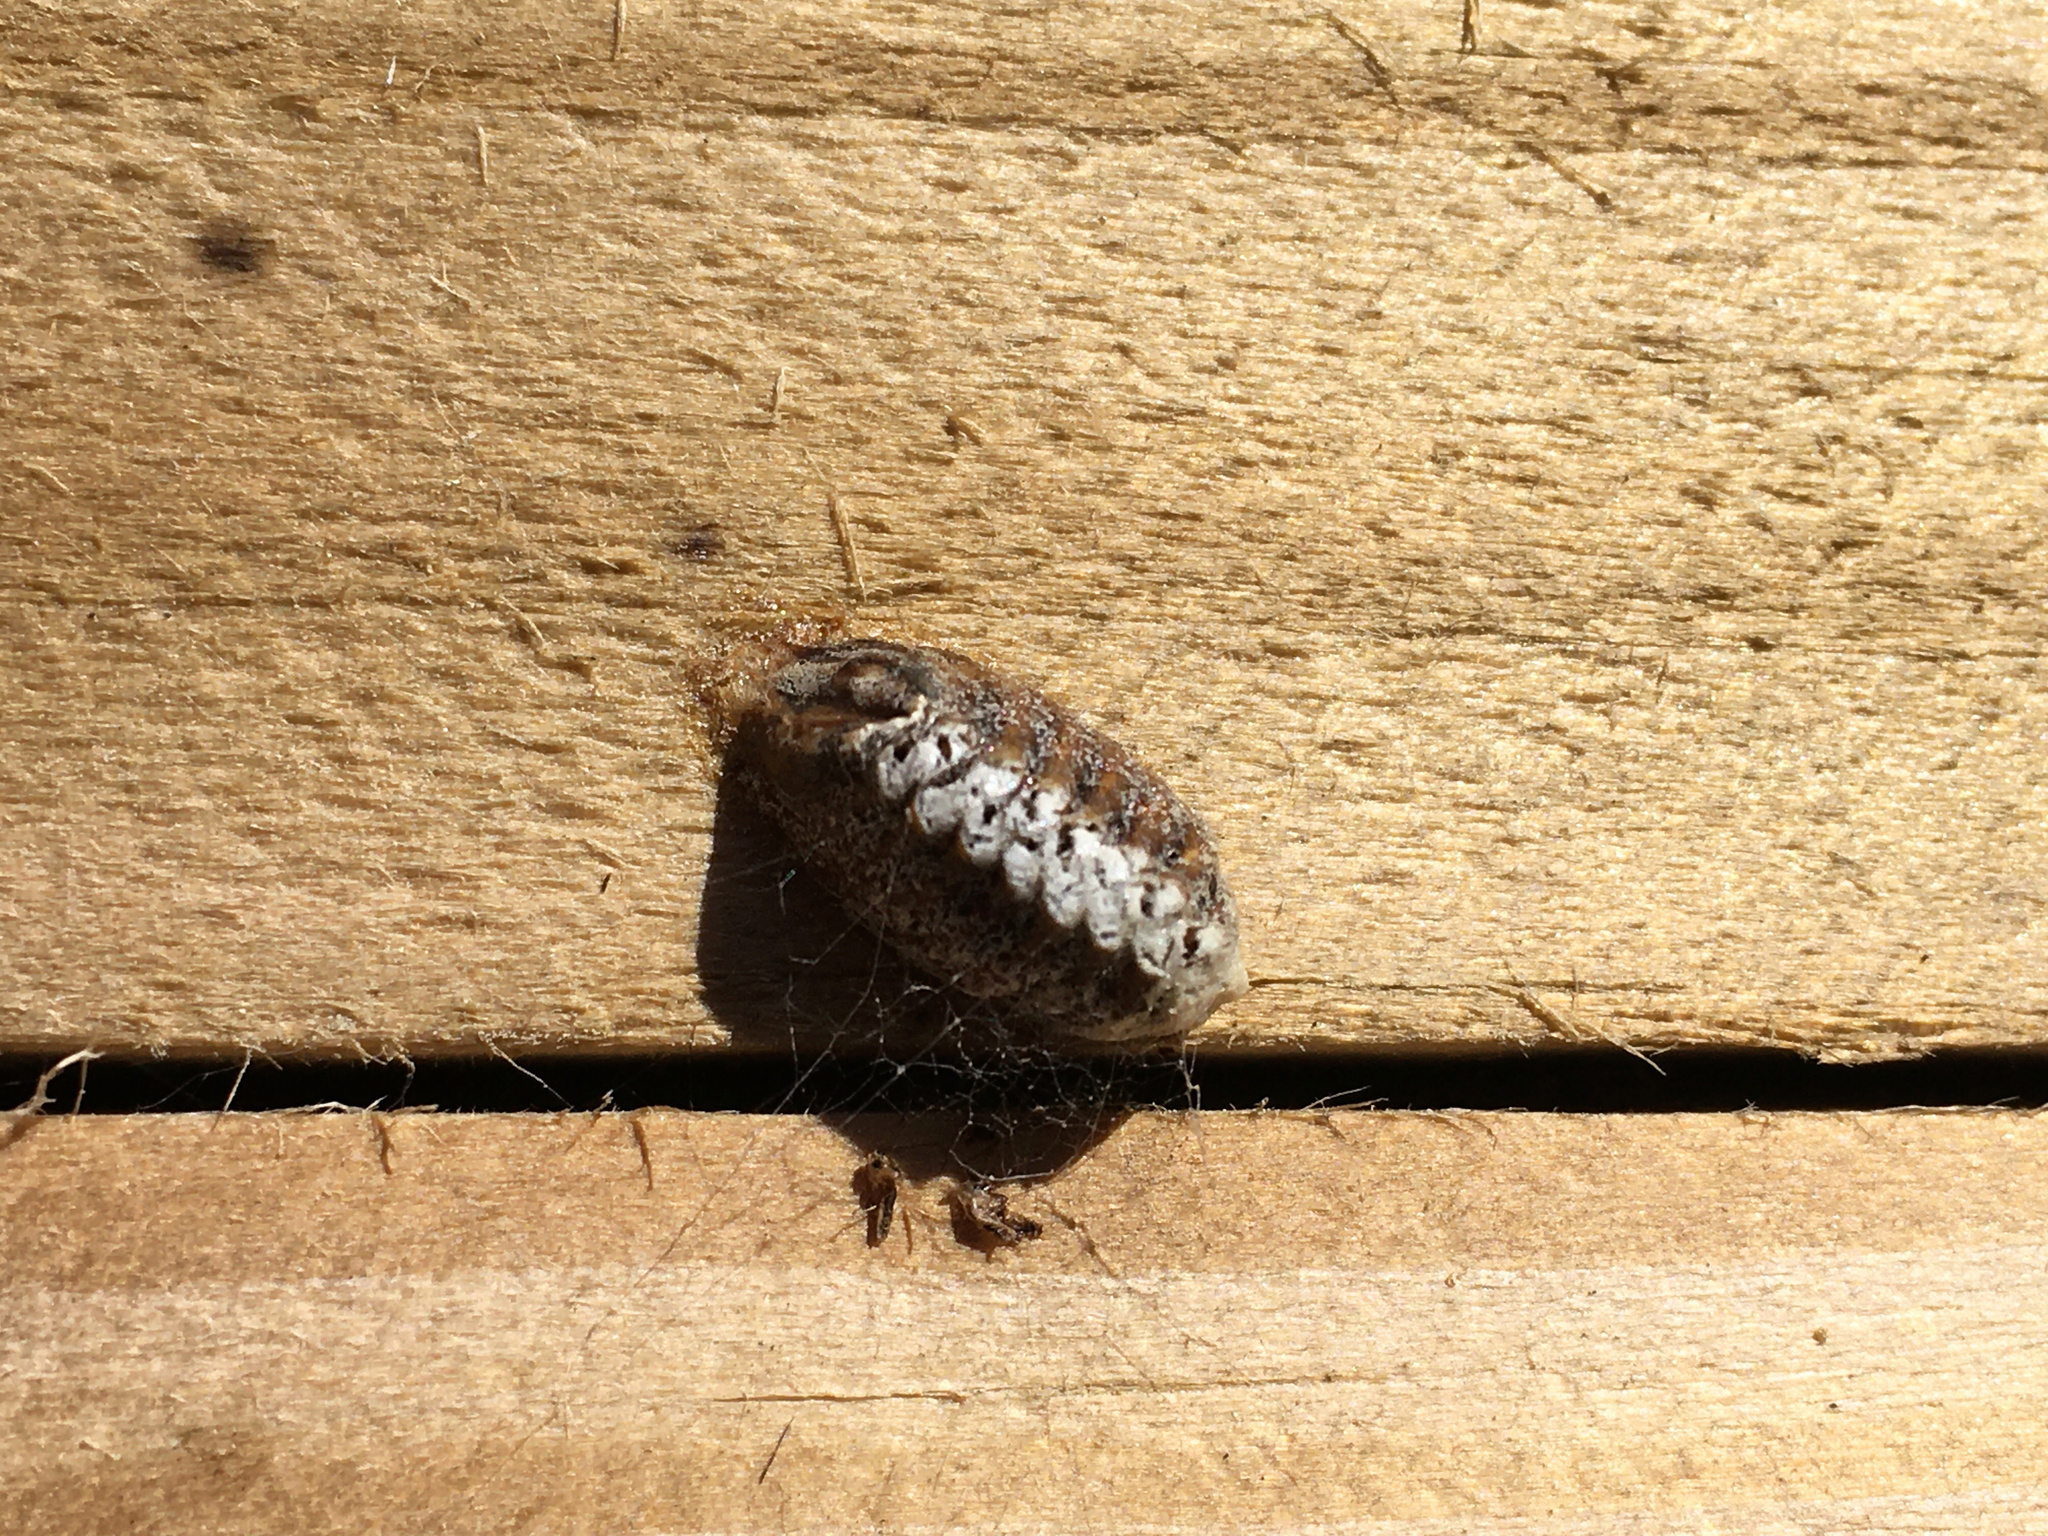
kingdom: Animalia
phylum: Arthropoda
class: Insecta
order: Mantodea
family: Mantidae
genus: Orthodera
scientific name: Orthodera novaezealandiae
